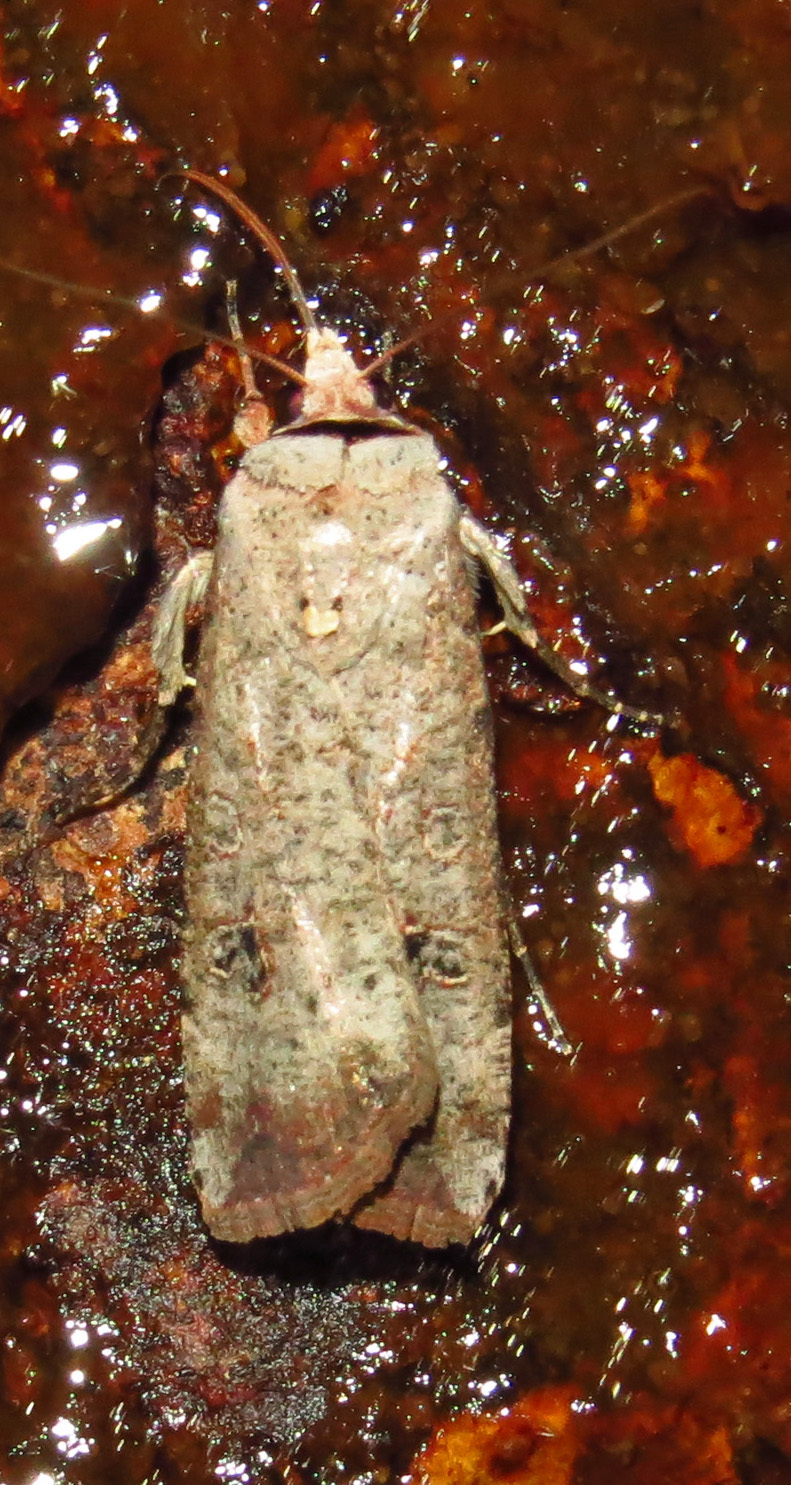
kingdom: Animalia
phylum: Arthropoda
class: Insecta
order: Lepidoptera
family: Noctuidae
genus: Anicla
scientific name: Anicla infecta
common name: Green cutworm
